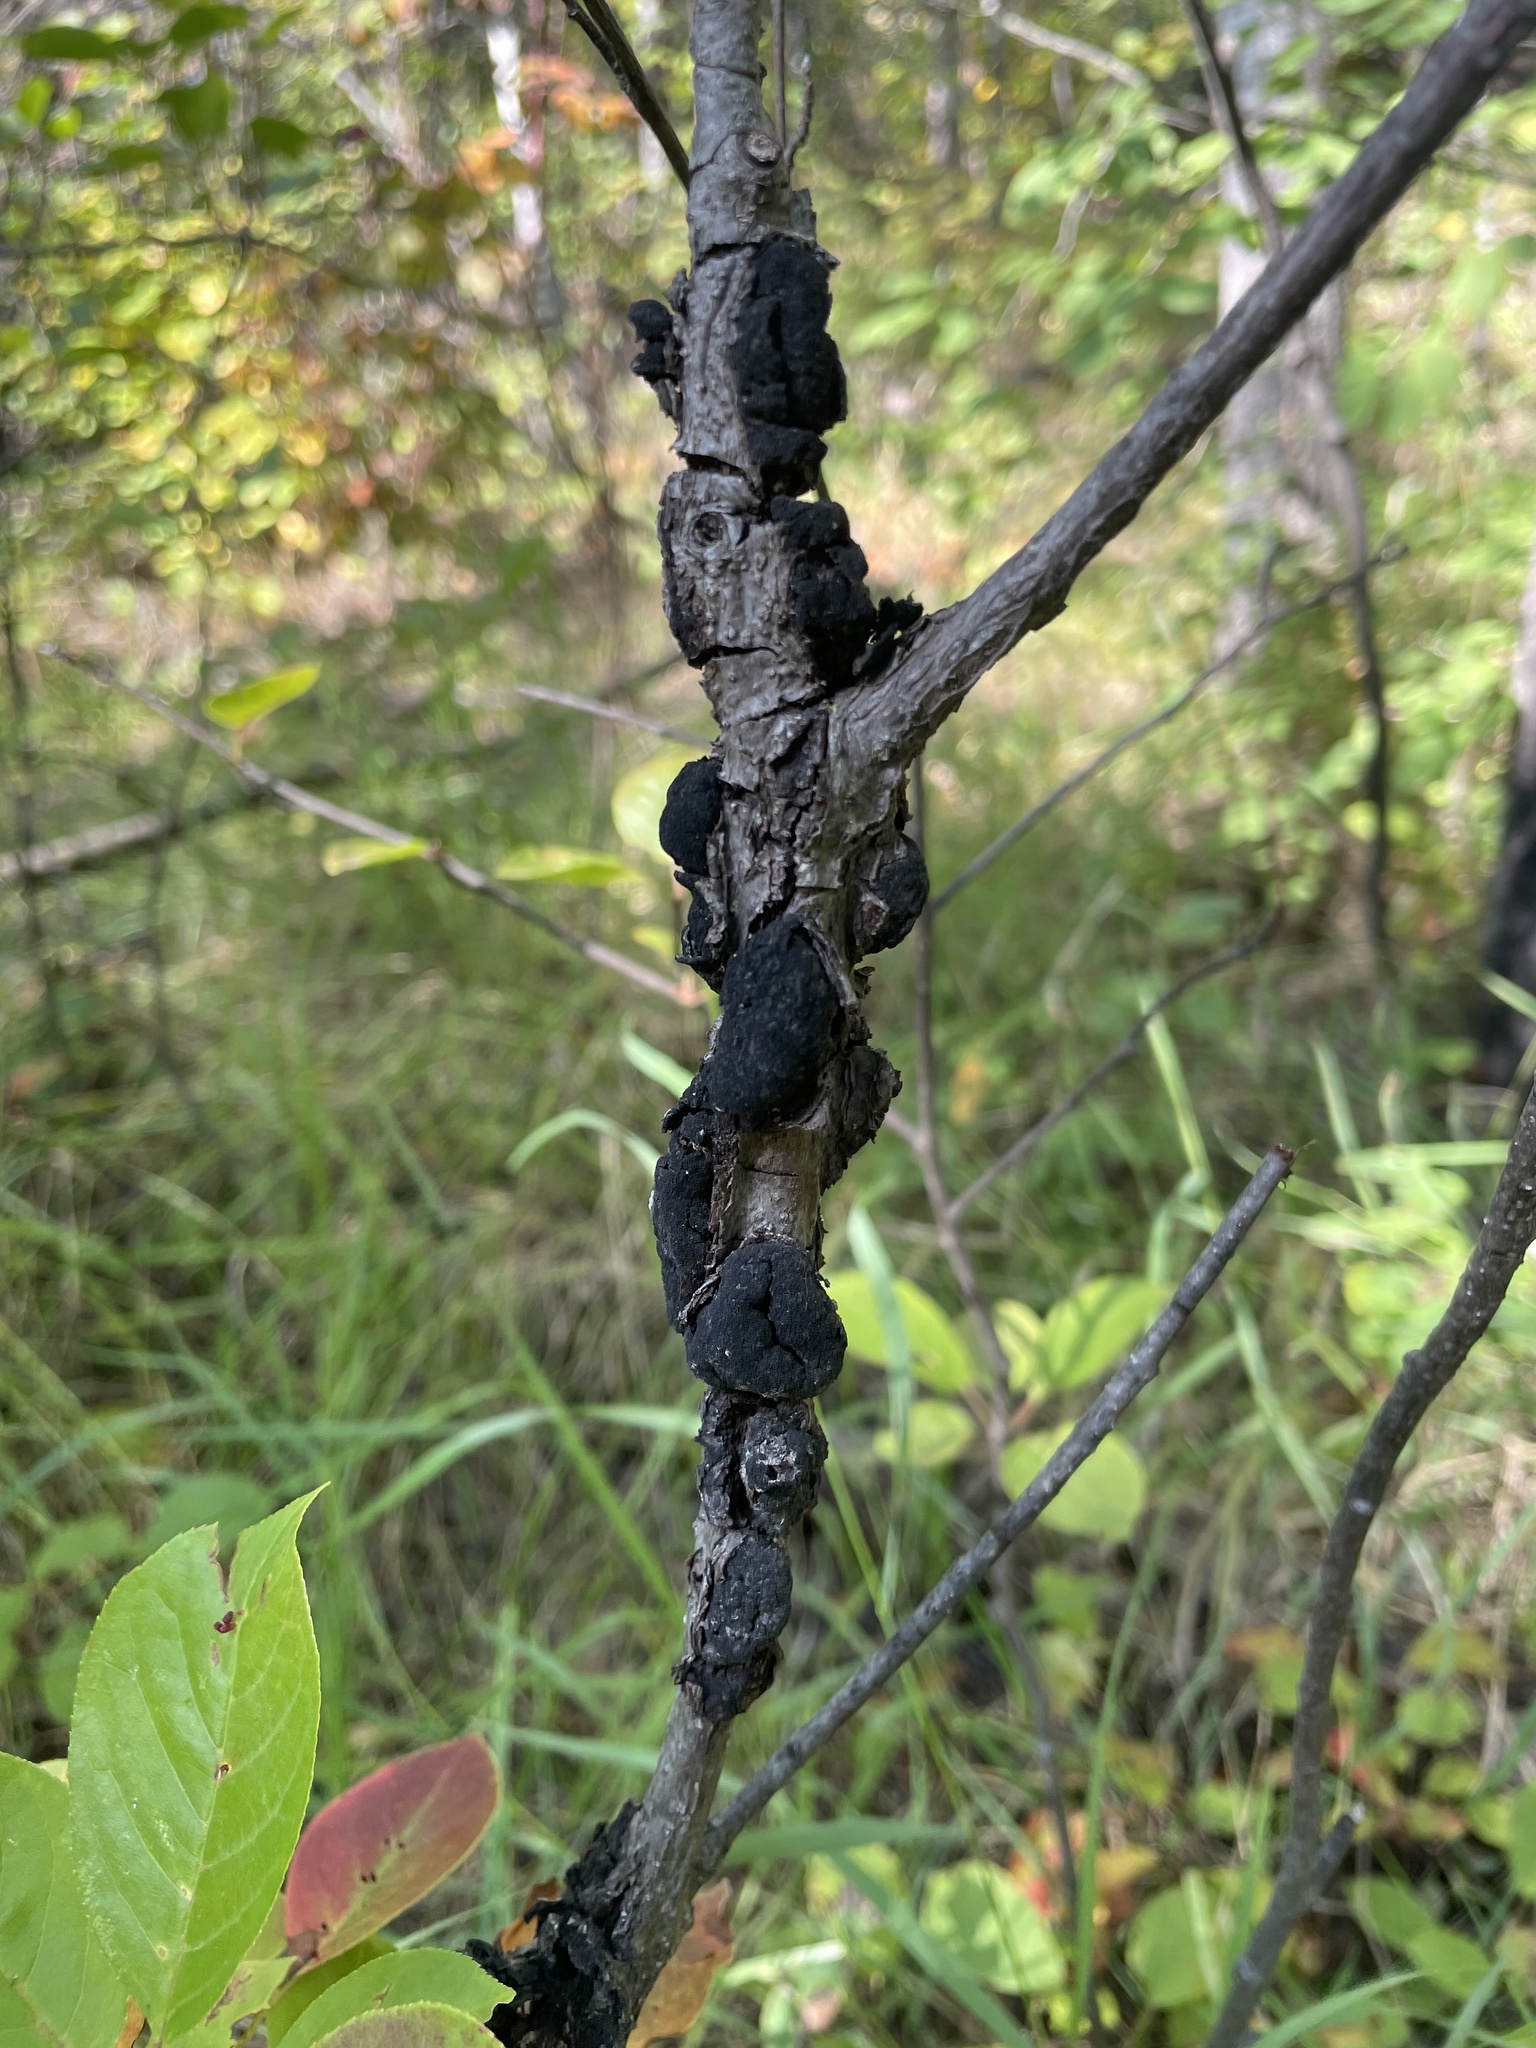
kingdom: Fungi
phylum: Ascomycota
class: Dothideomycetes
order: Venturiales
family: Venturiaceae
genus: Apiosporina
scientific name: Apiosporina morbosa
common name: Black knot
